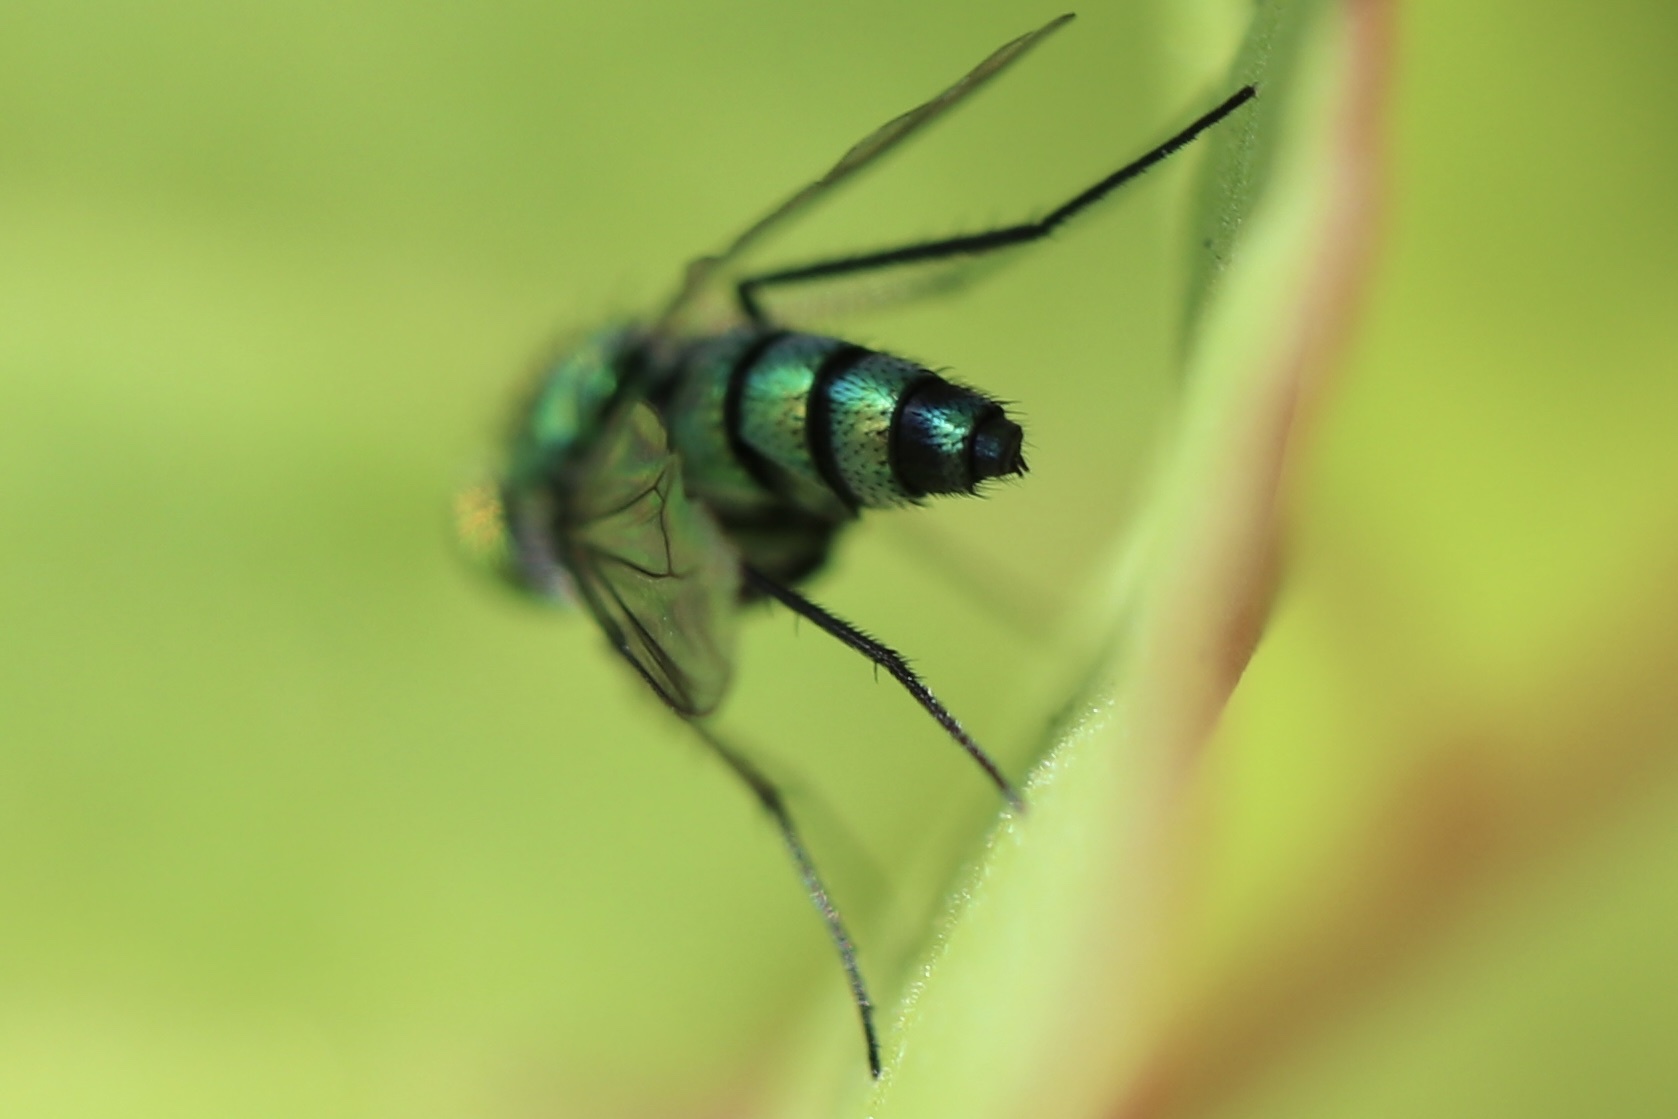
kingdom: Animalia
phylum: Arthropoda
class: Insecta
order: Diptera
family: Dolichopodidae
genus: Condylostylus
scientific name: Condylostylus longicornis
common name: Long-legged fly
